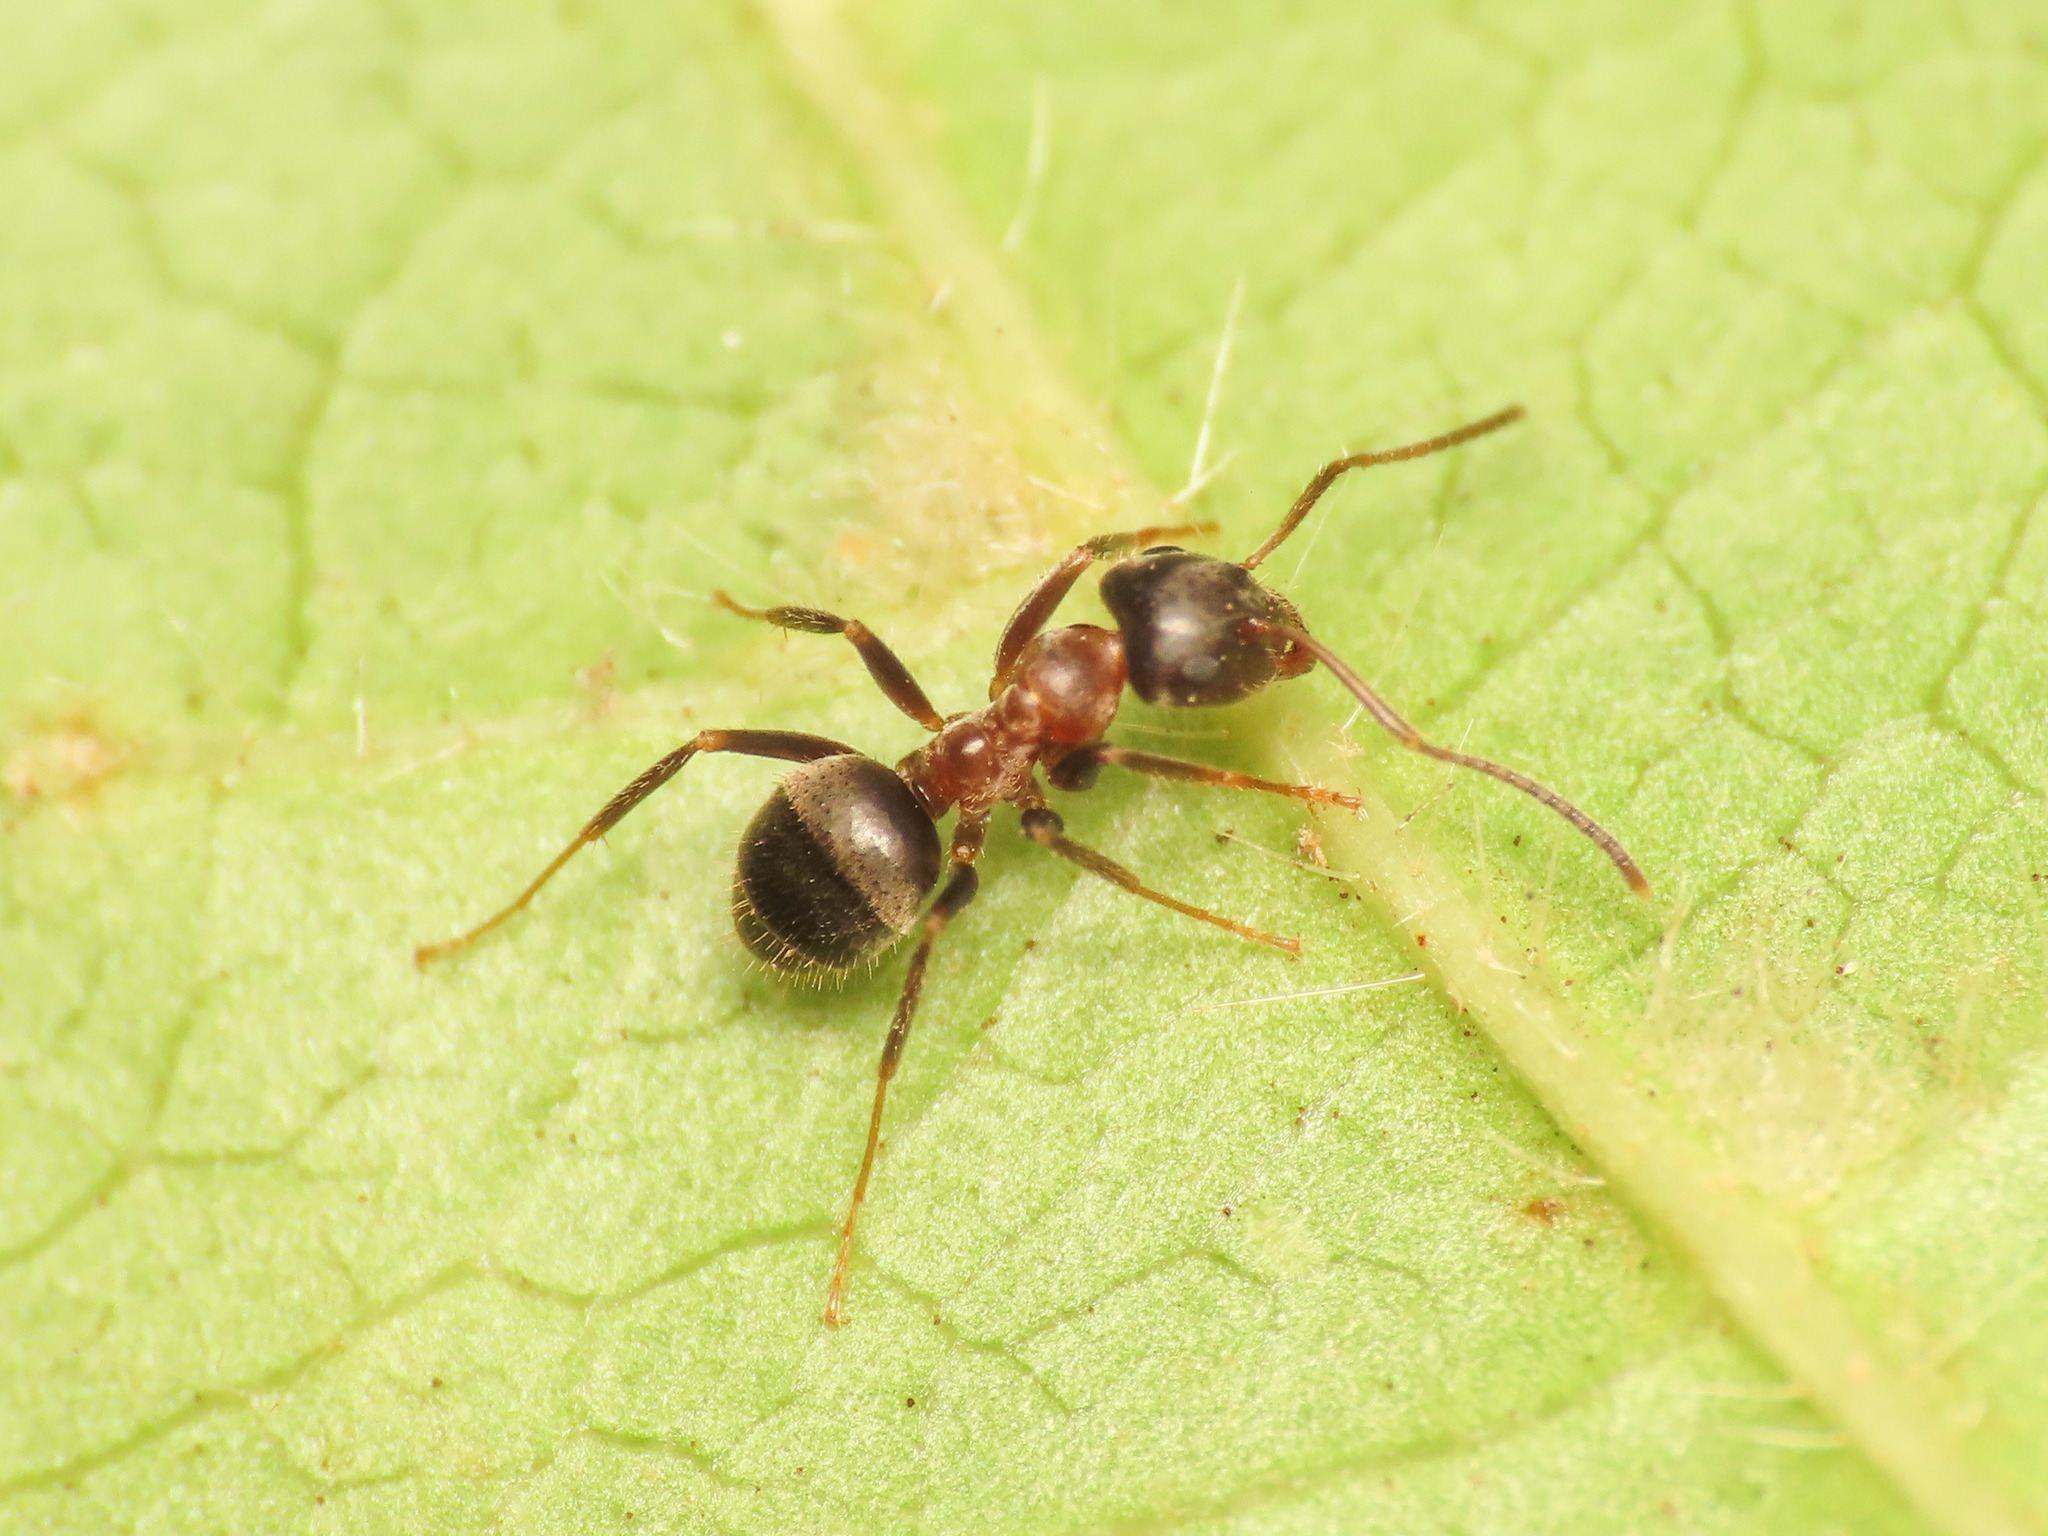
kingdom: Animalia
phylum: Arthropoda
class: Insecta
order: Hymenoptera
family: Formicidae
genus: Lasius
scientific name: Lasius emarginatus
